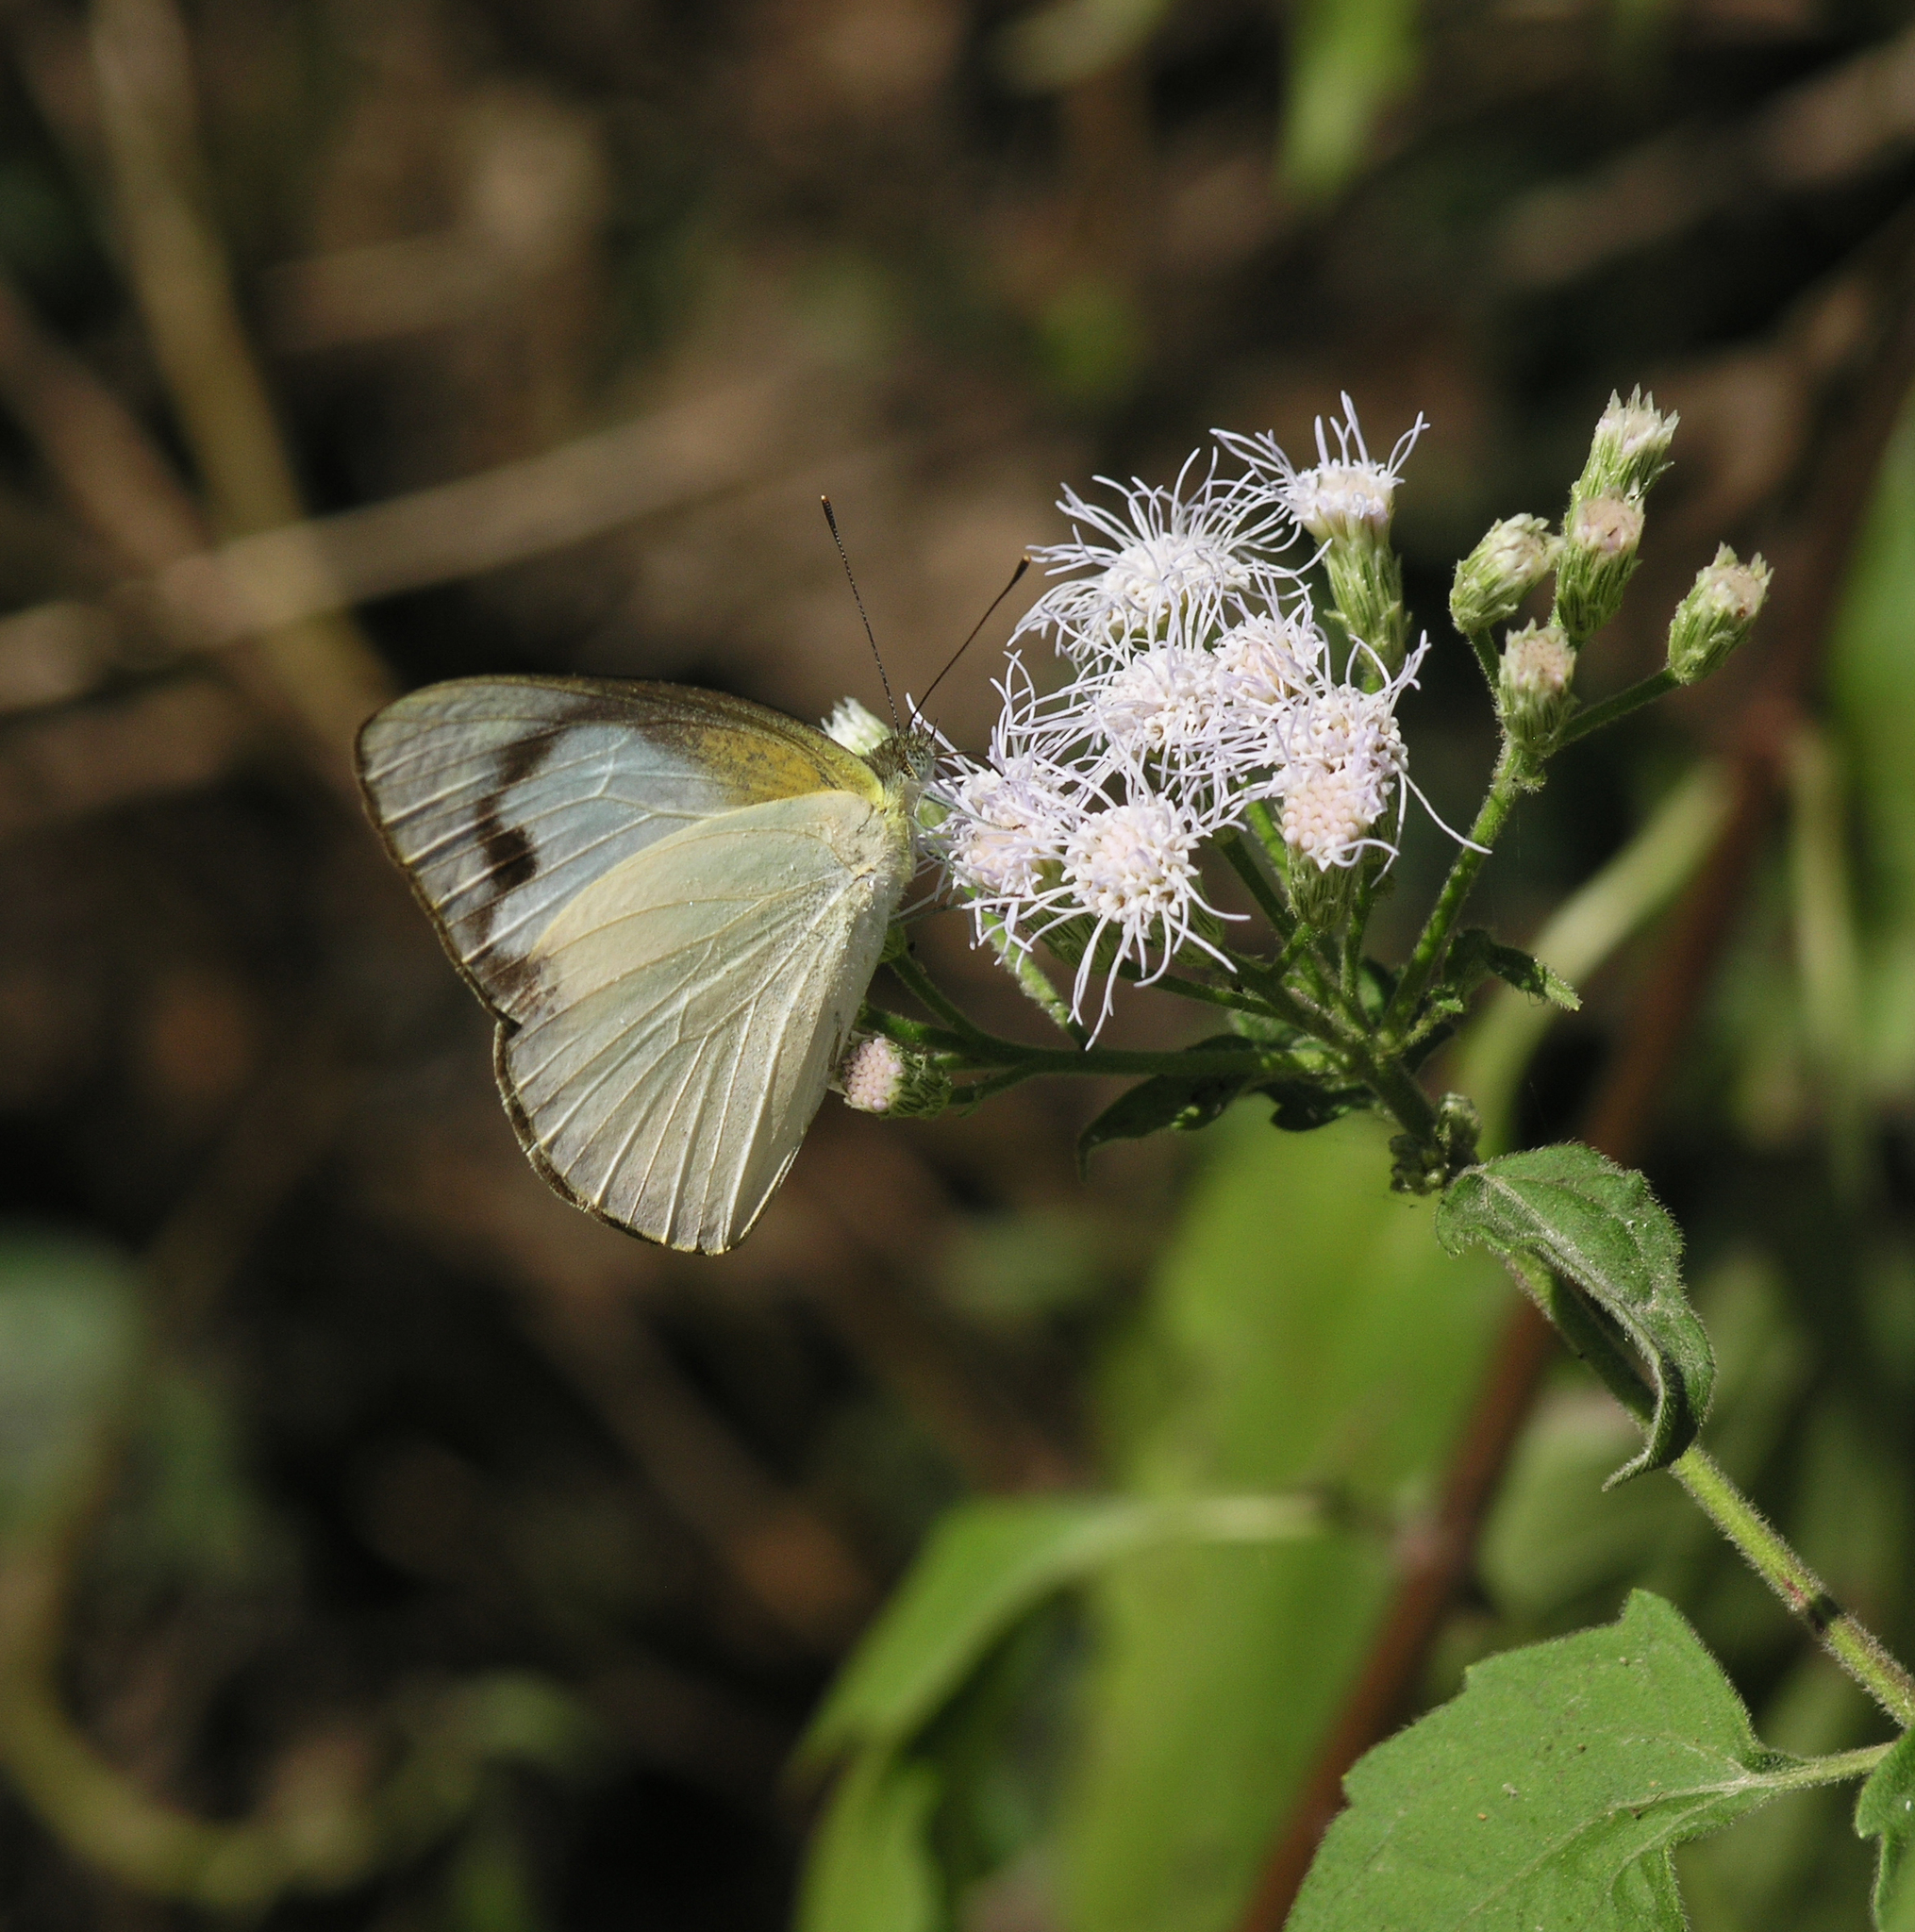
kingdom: Animalia
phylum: Arthropoda
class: Insecta
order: Lepidoptera
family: Pieridae
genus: Appias
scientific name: Appias albina
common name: Common albatross
